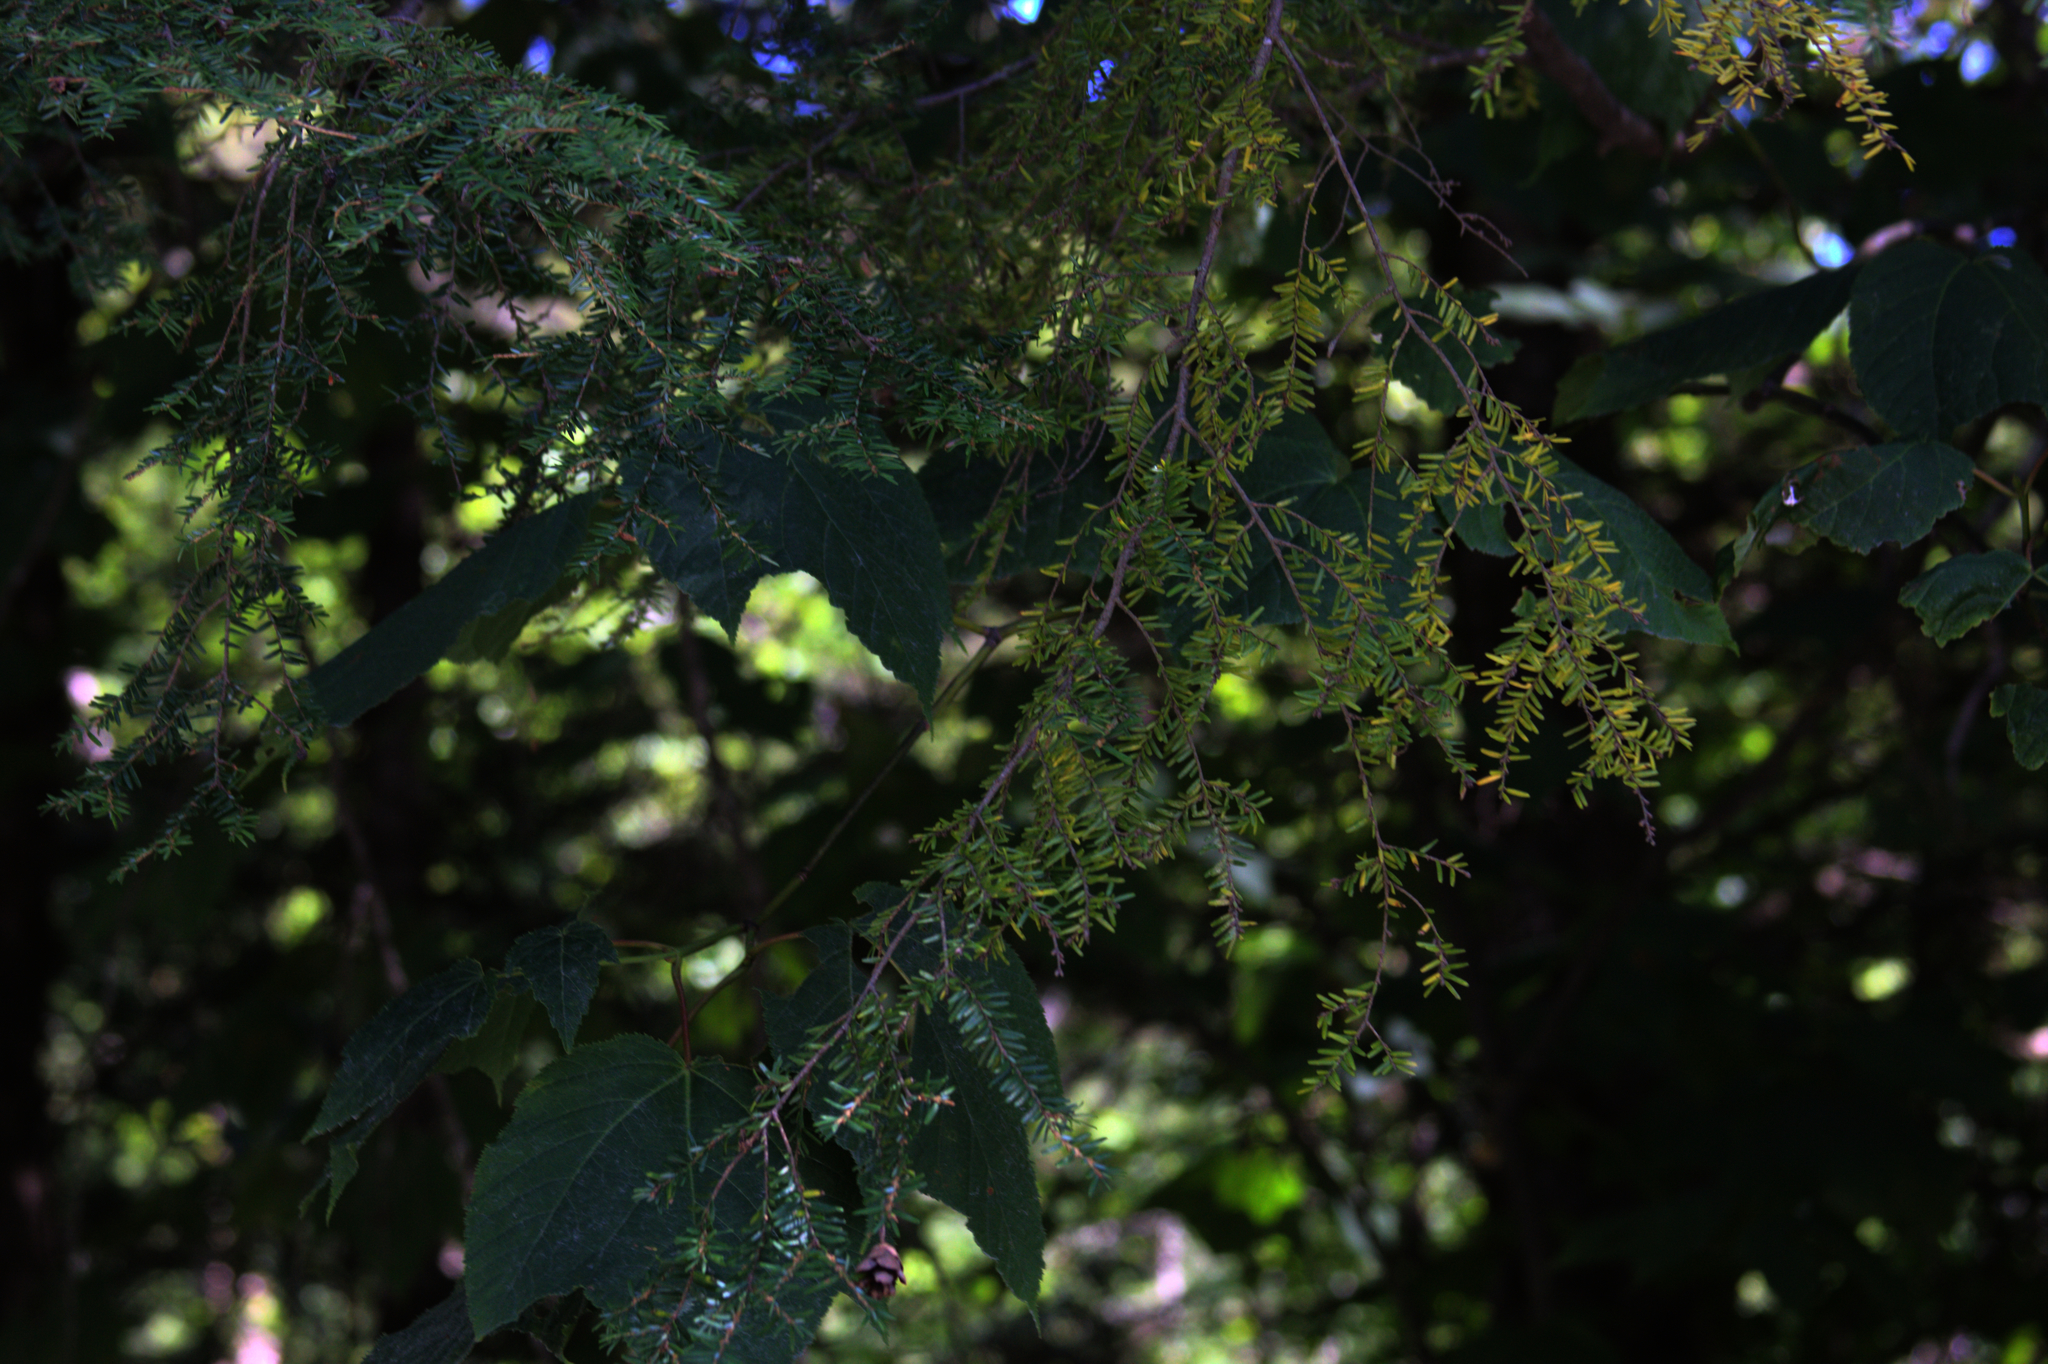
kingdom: Plantae
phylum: Tracheophyta
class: Pinopsida
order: Pinales
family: Pinaceae
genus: Tsuga
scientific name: Tsuga canadensis
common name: Eastern hemlock
